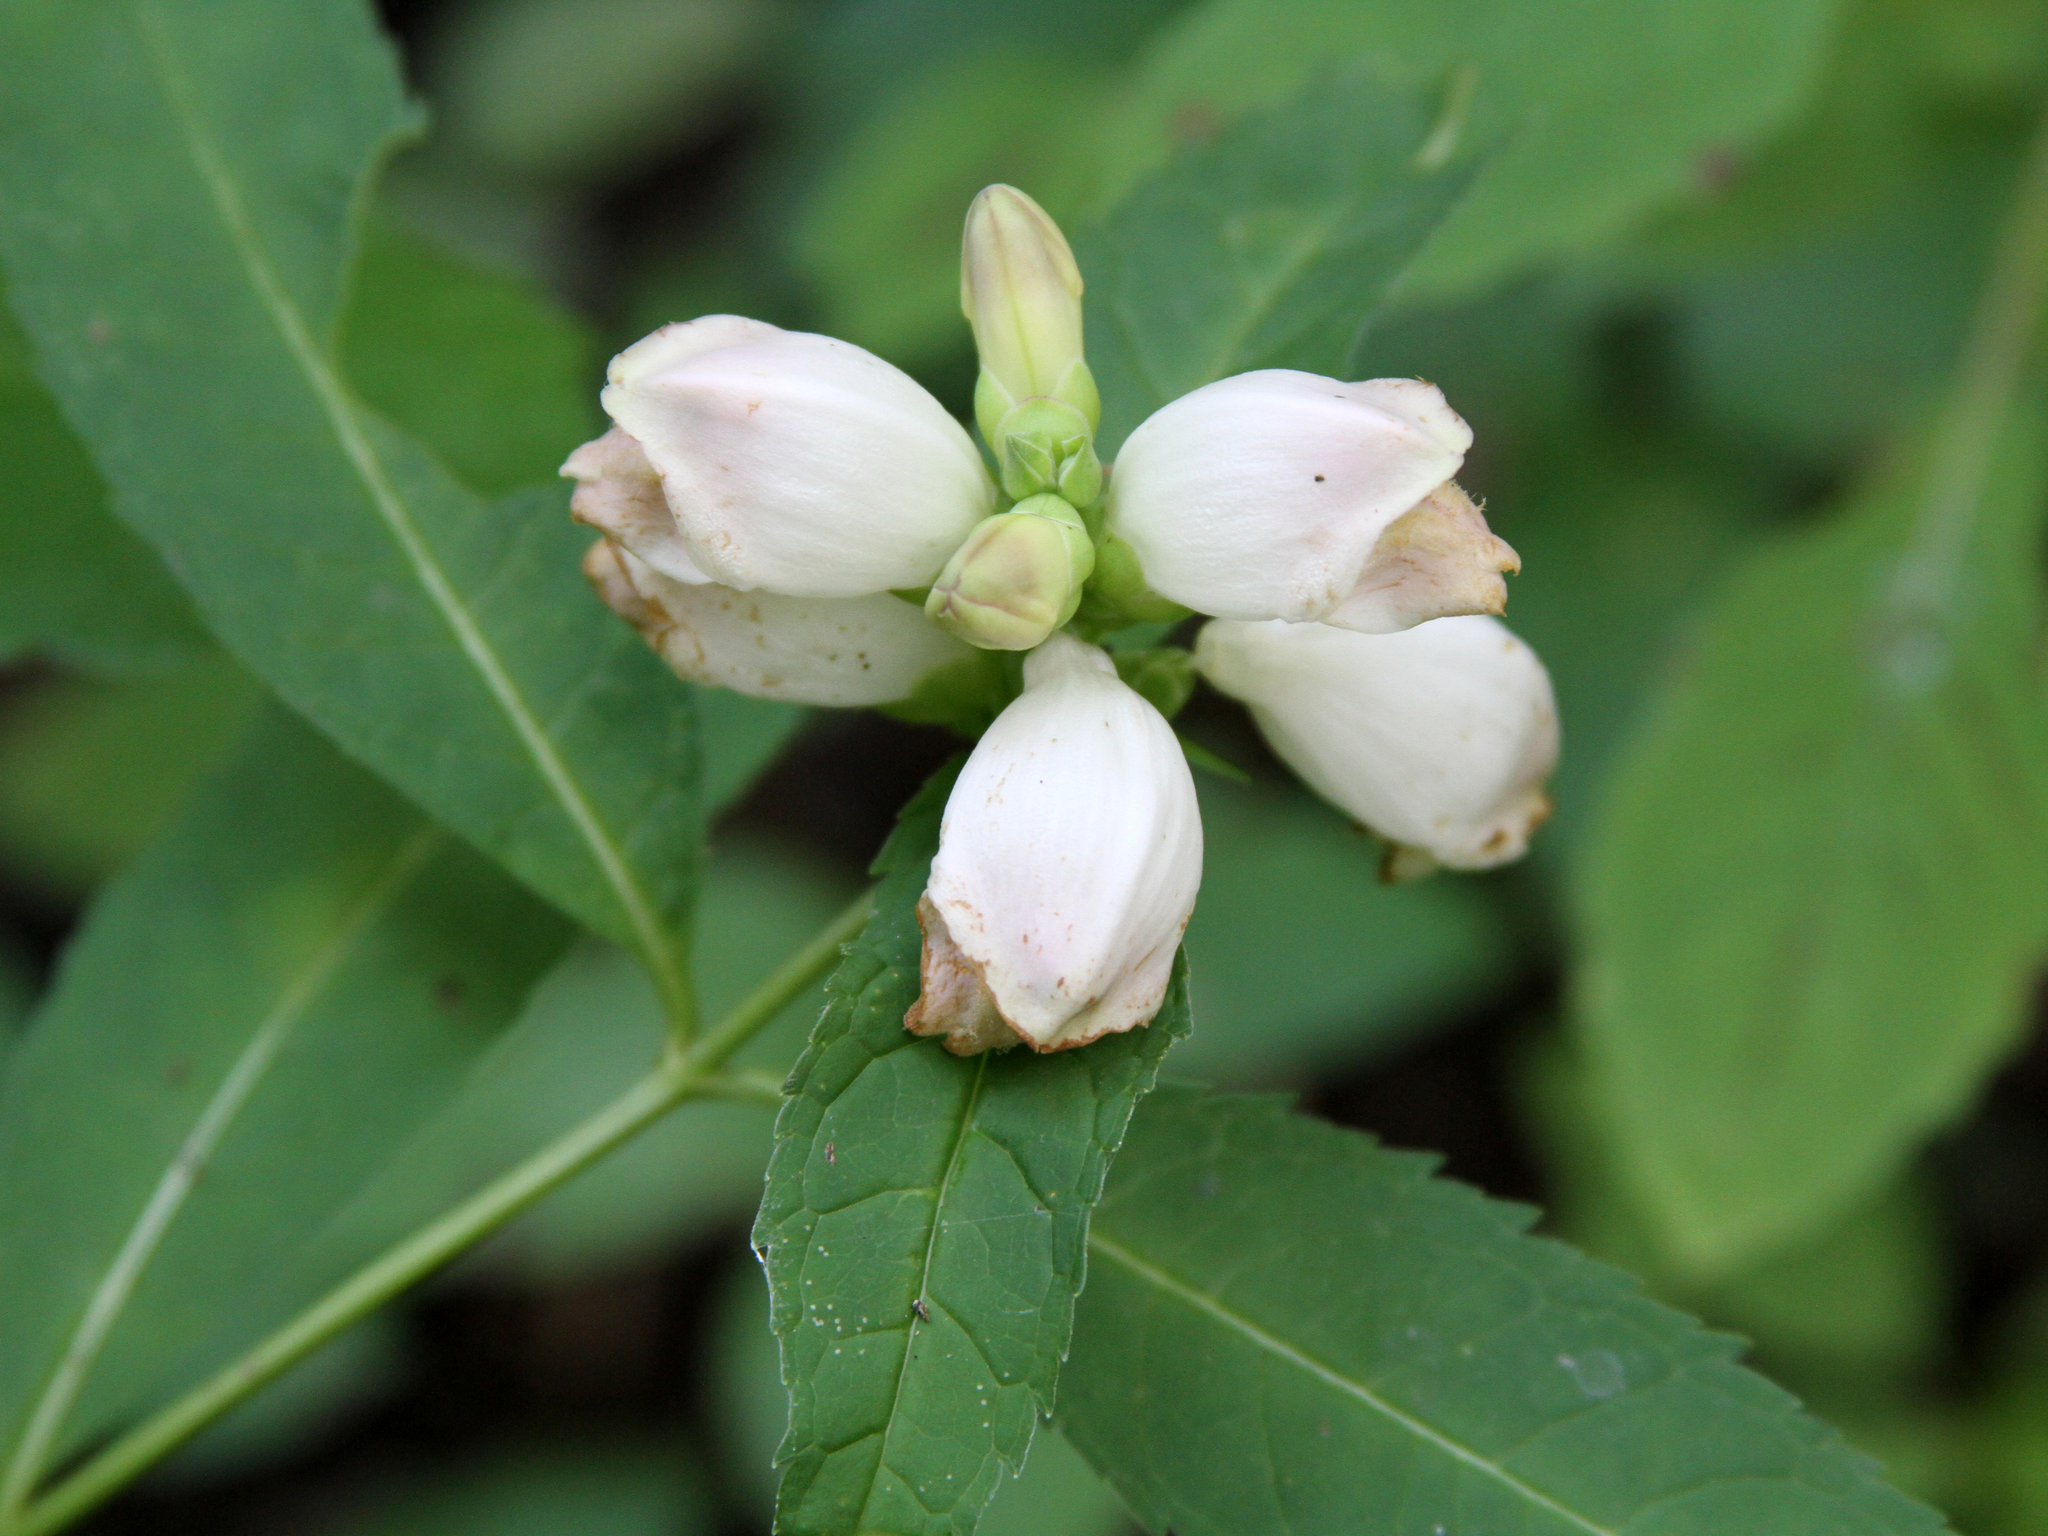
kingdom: Plantae
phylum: Tracheophyta
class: Magnoliopsida
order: Lamiales
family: Plantaginaceae
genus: Chelone
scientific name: Chelone glabra
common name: Snakehead
